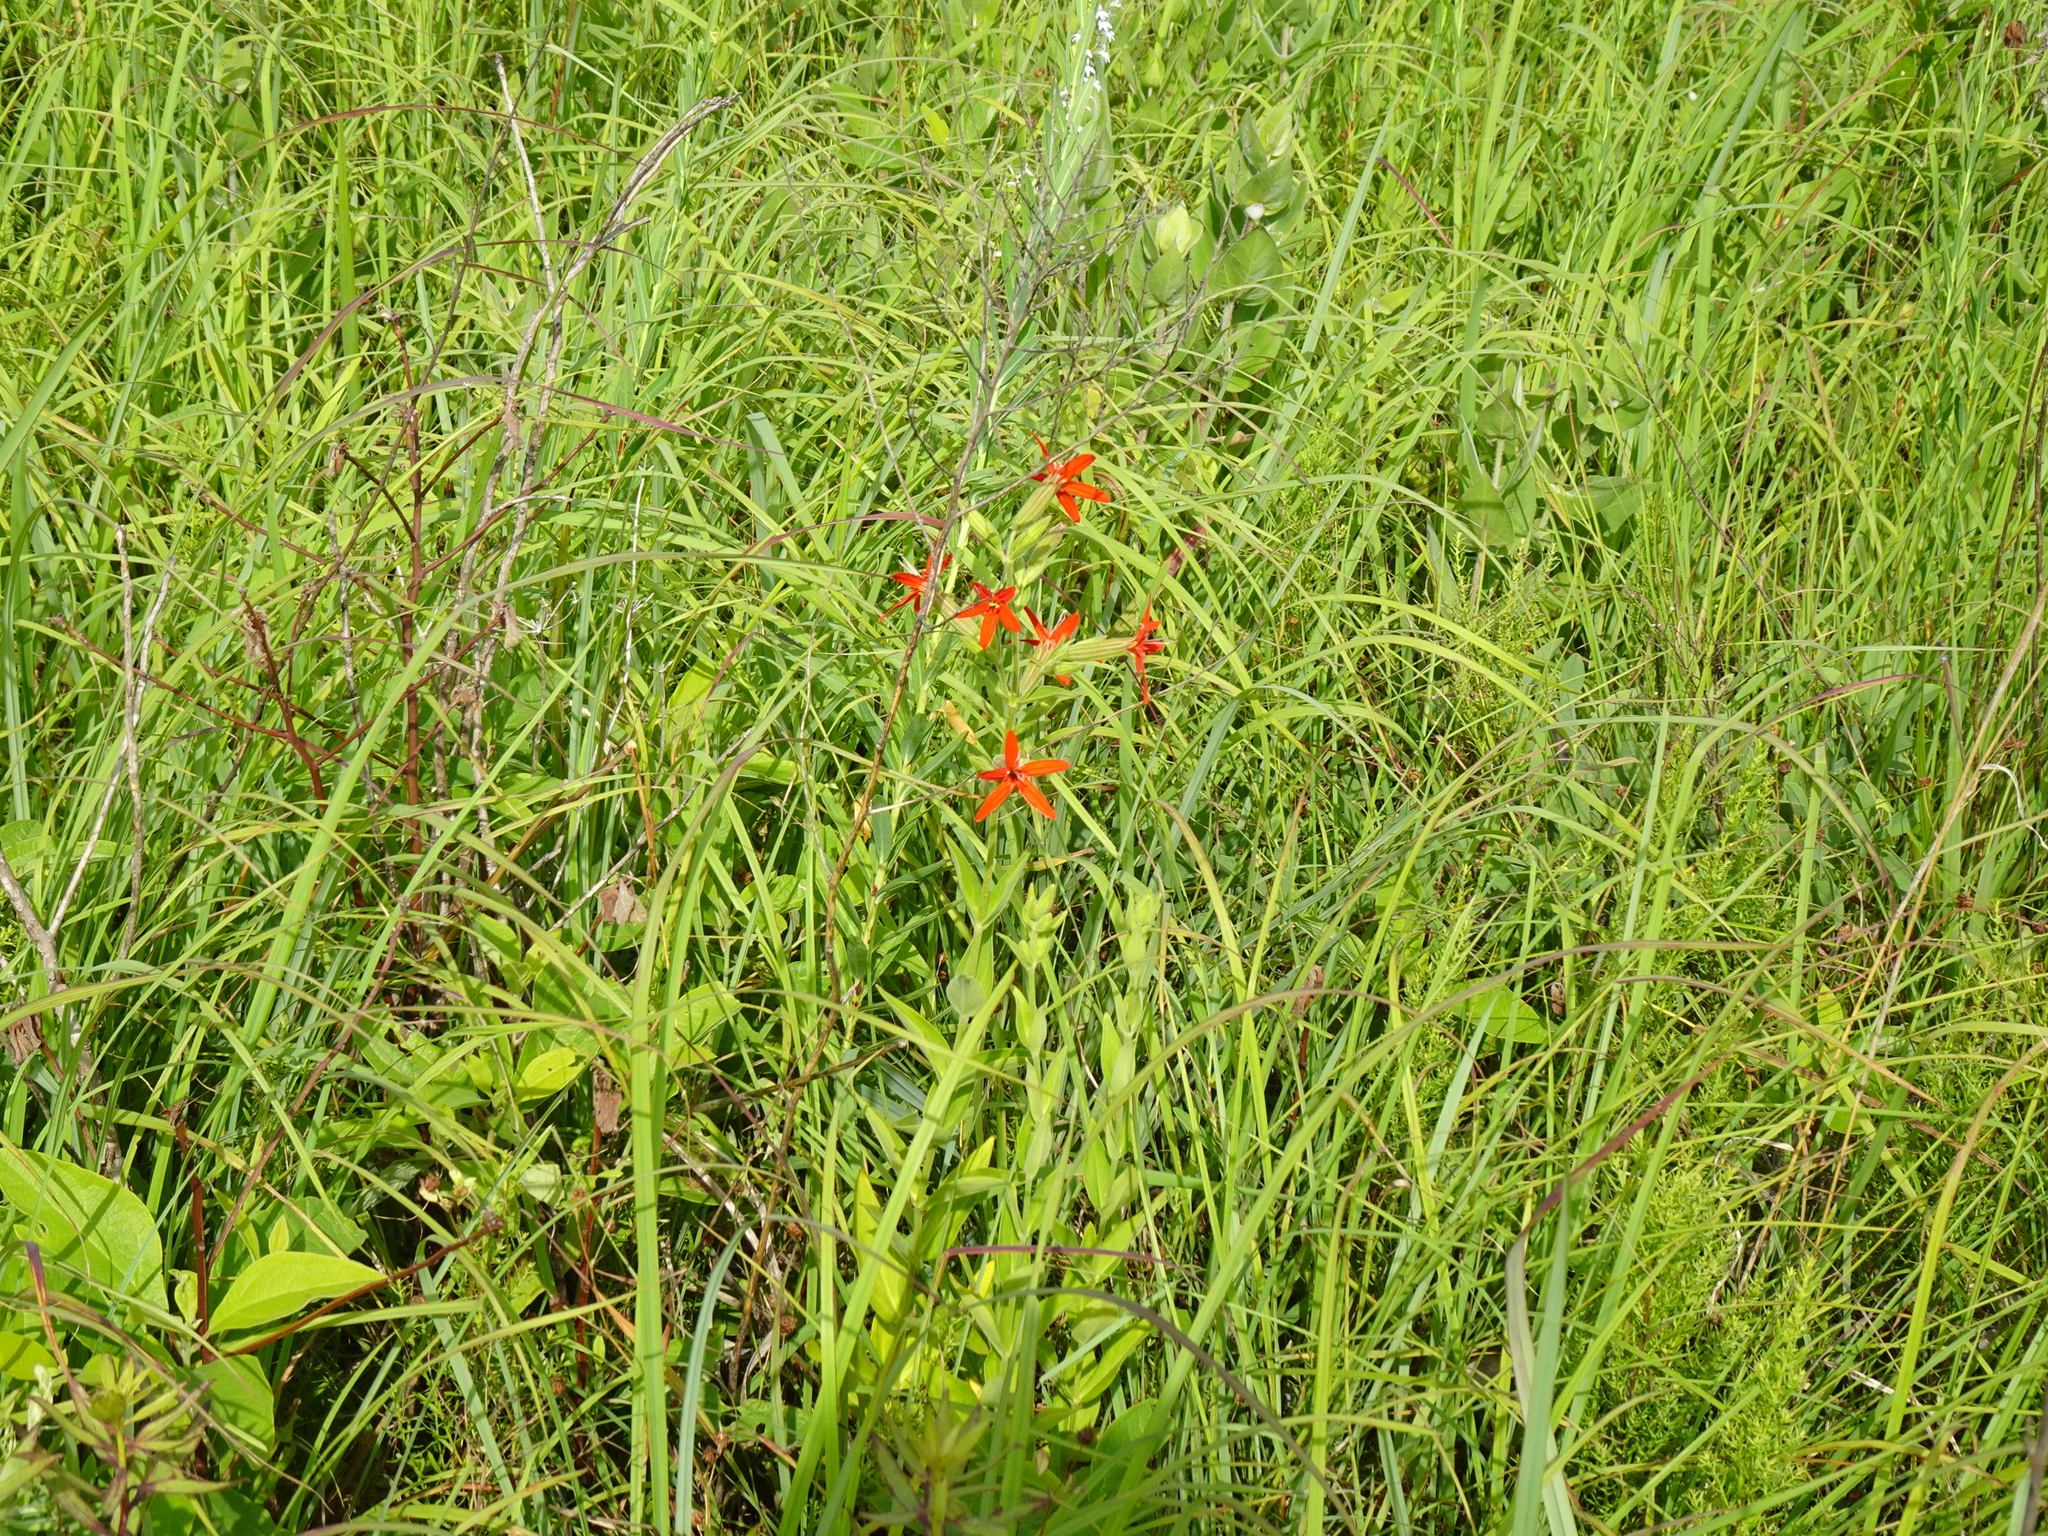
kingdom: Plantae
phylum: Tracheophyta
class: Magnoliopsida
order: Caryophyllales
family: Caryophyllaceae
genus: Silene
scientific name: Silene regia
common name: Royal catchfly
